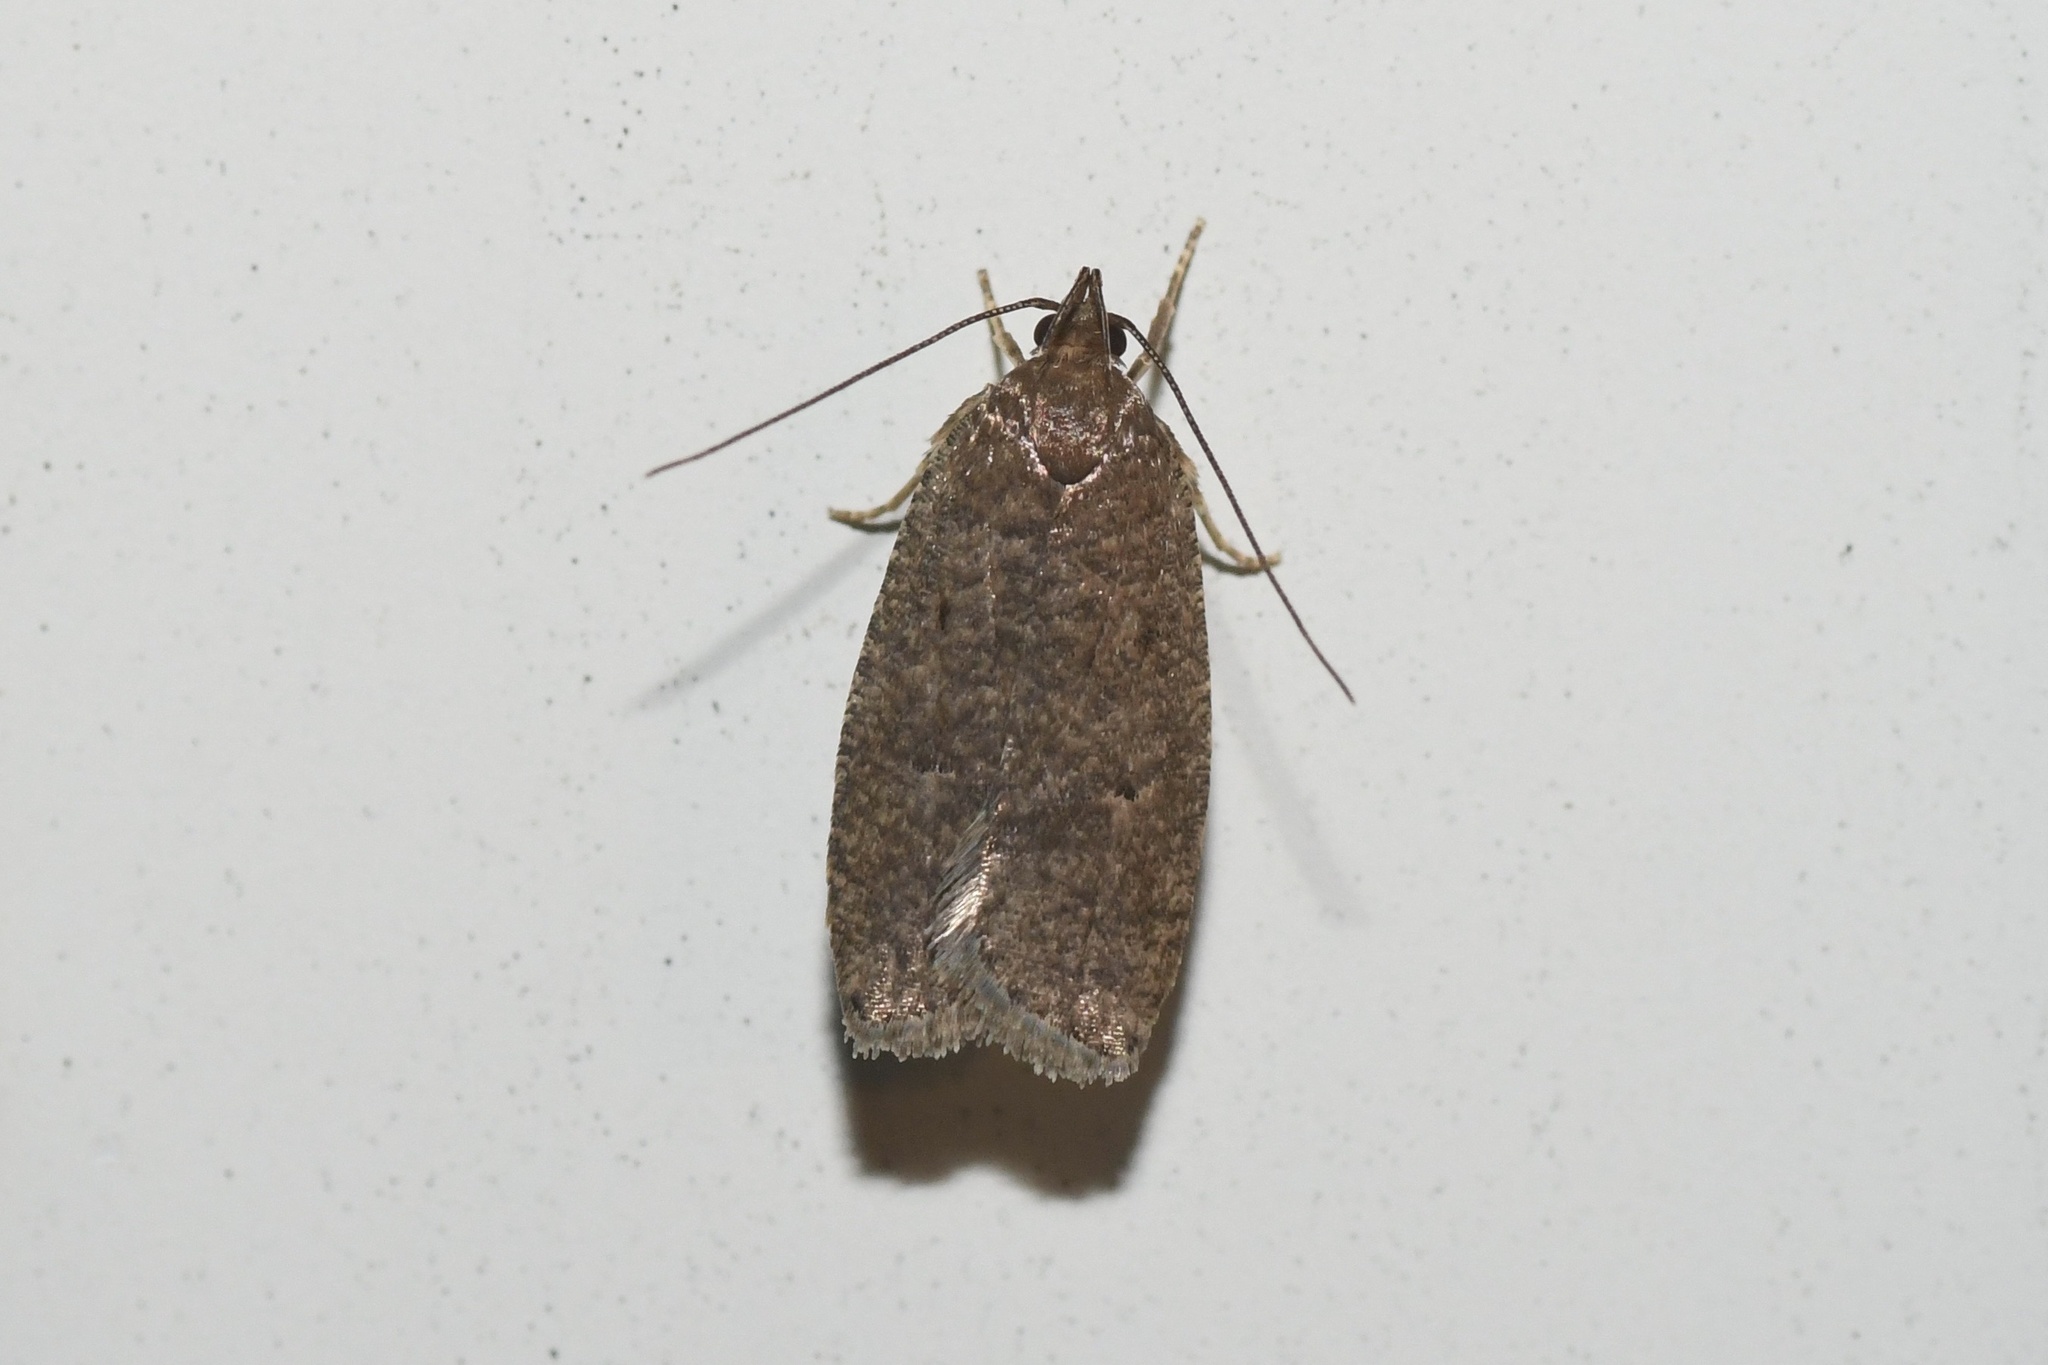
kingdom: Animalia
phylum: Arthropoda
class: Insecta
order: Lepidoptera
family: Depressariidae
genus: Psilocorsis
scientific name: Psilocorsis reflexella
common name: Dotted leaftier moth
